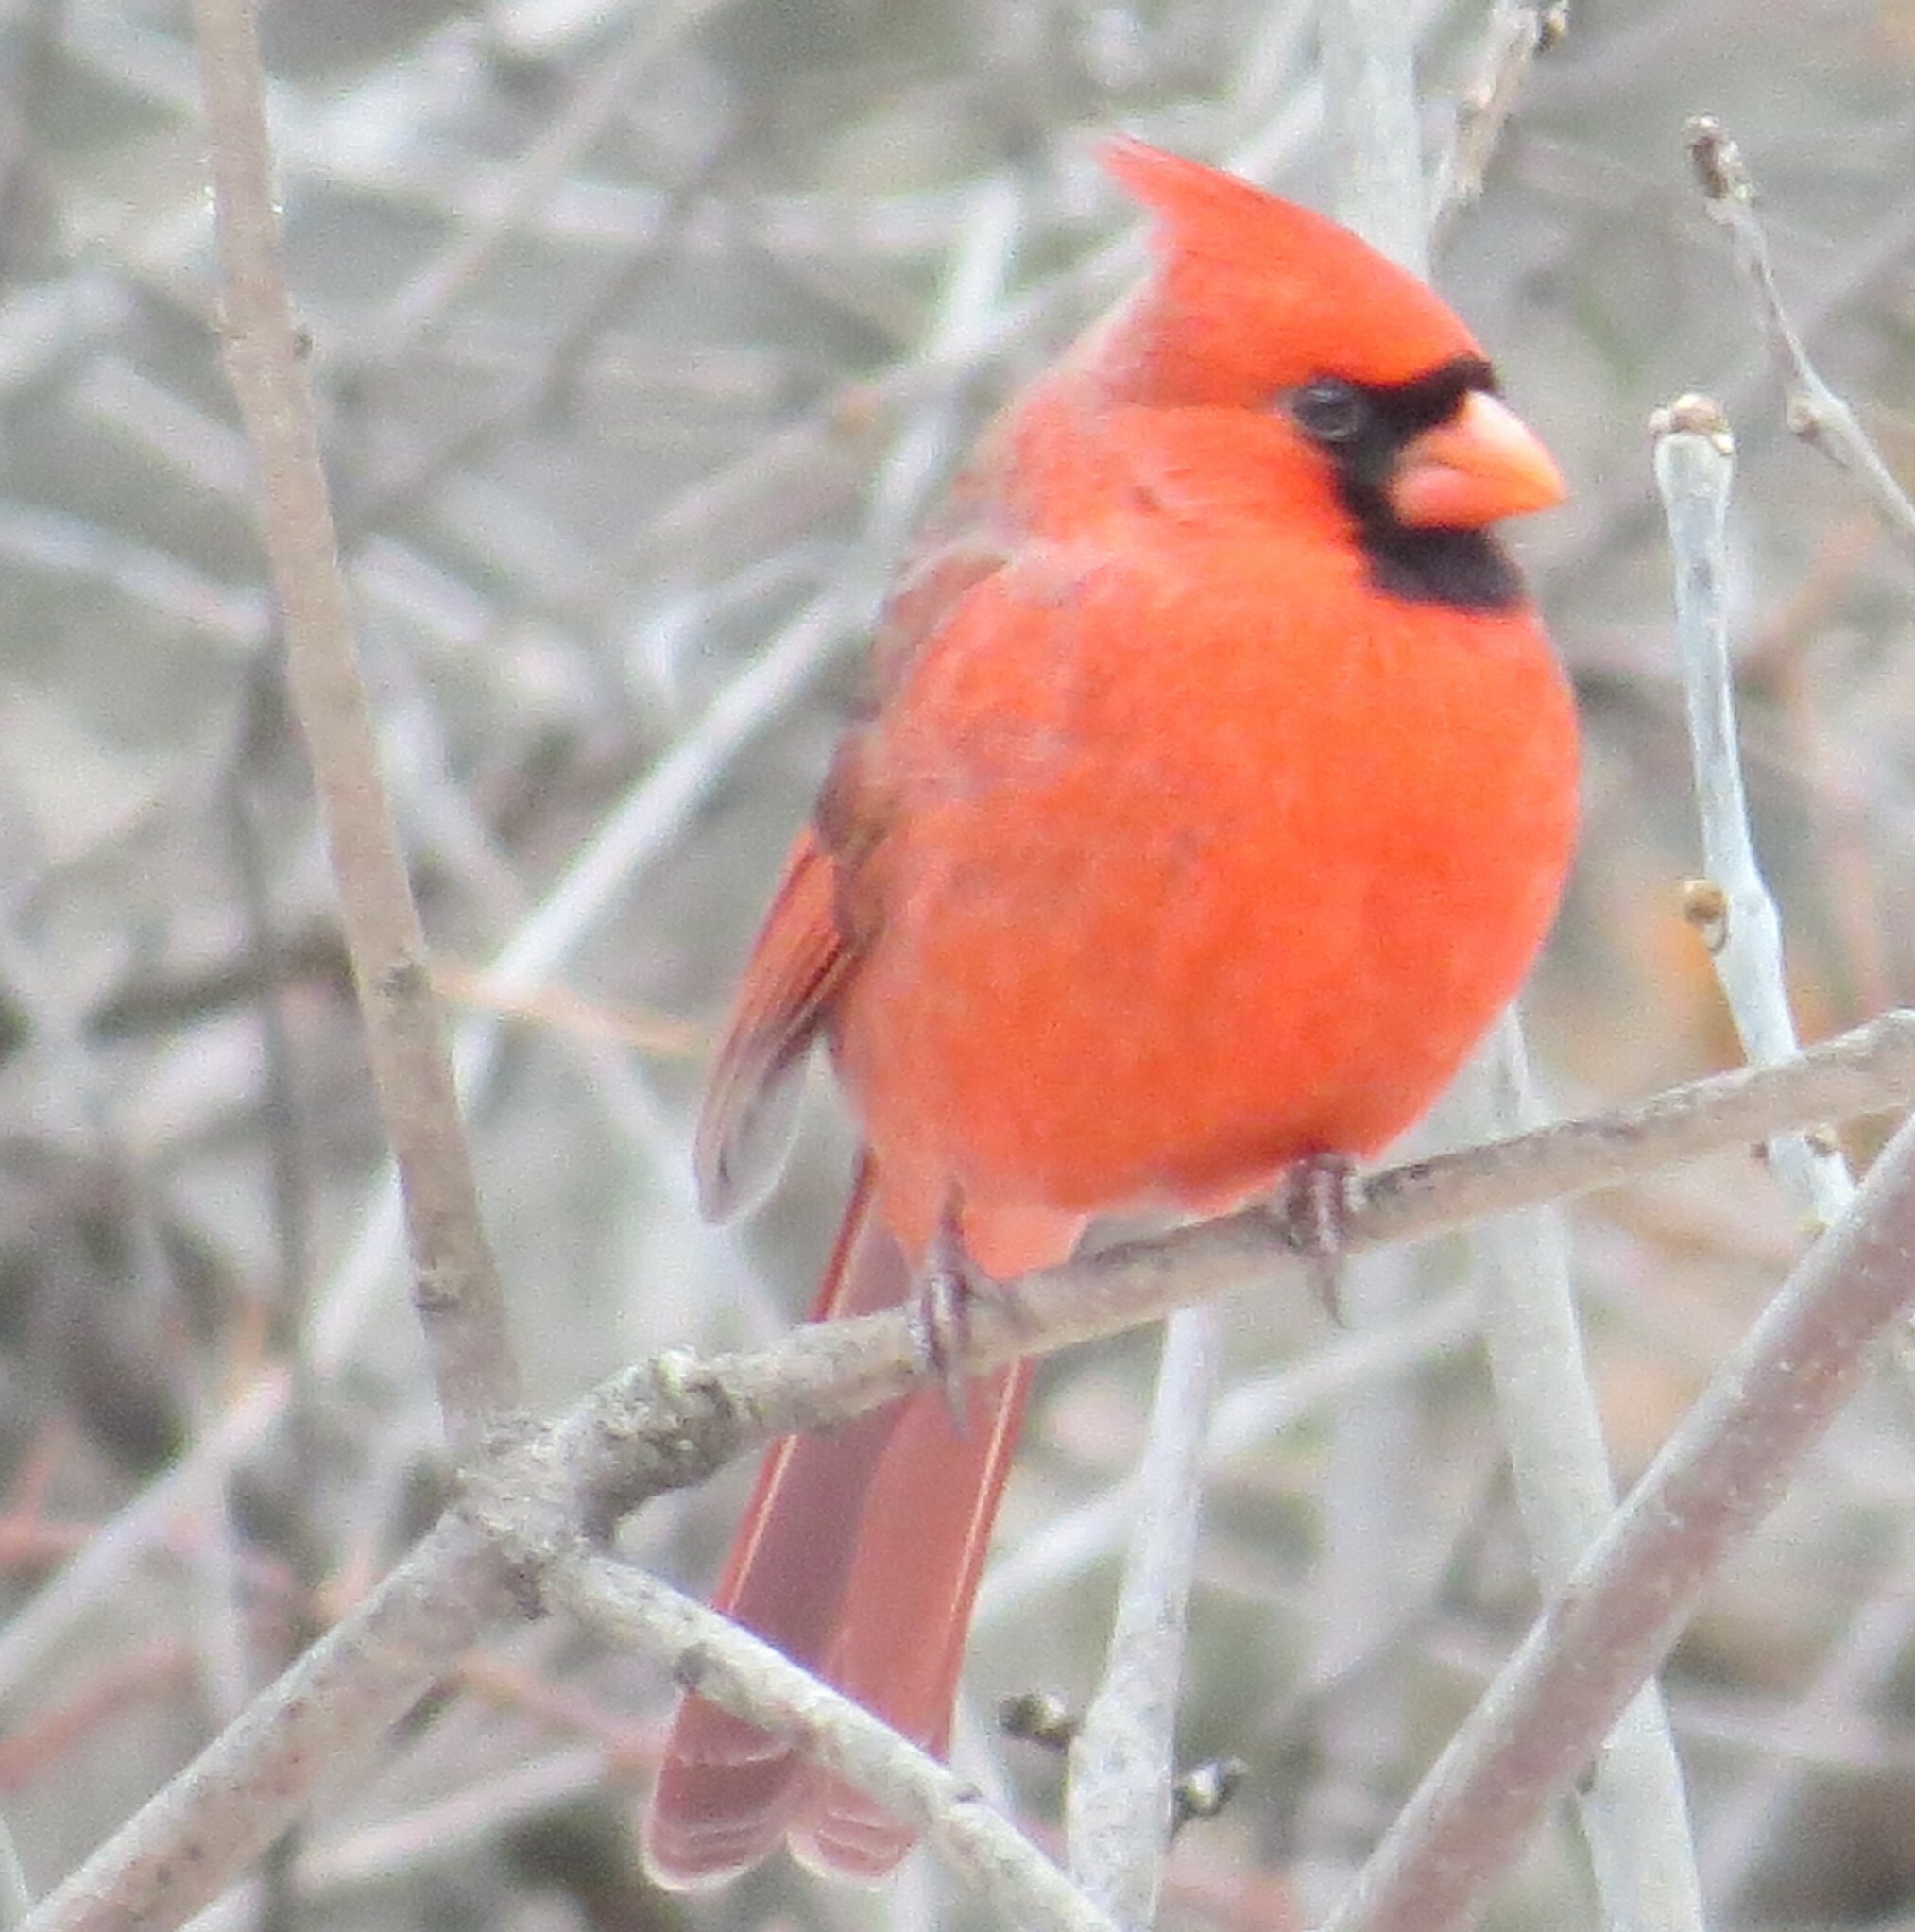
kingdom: Animalia
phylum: Chordata
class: Aves
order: Passeriformes
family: Cardinalidae
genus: Cardinalis
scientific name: Cardinalis cardinalis
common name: Northern cardinal
